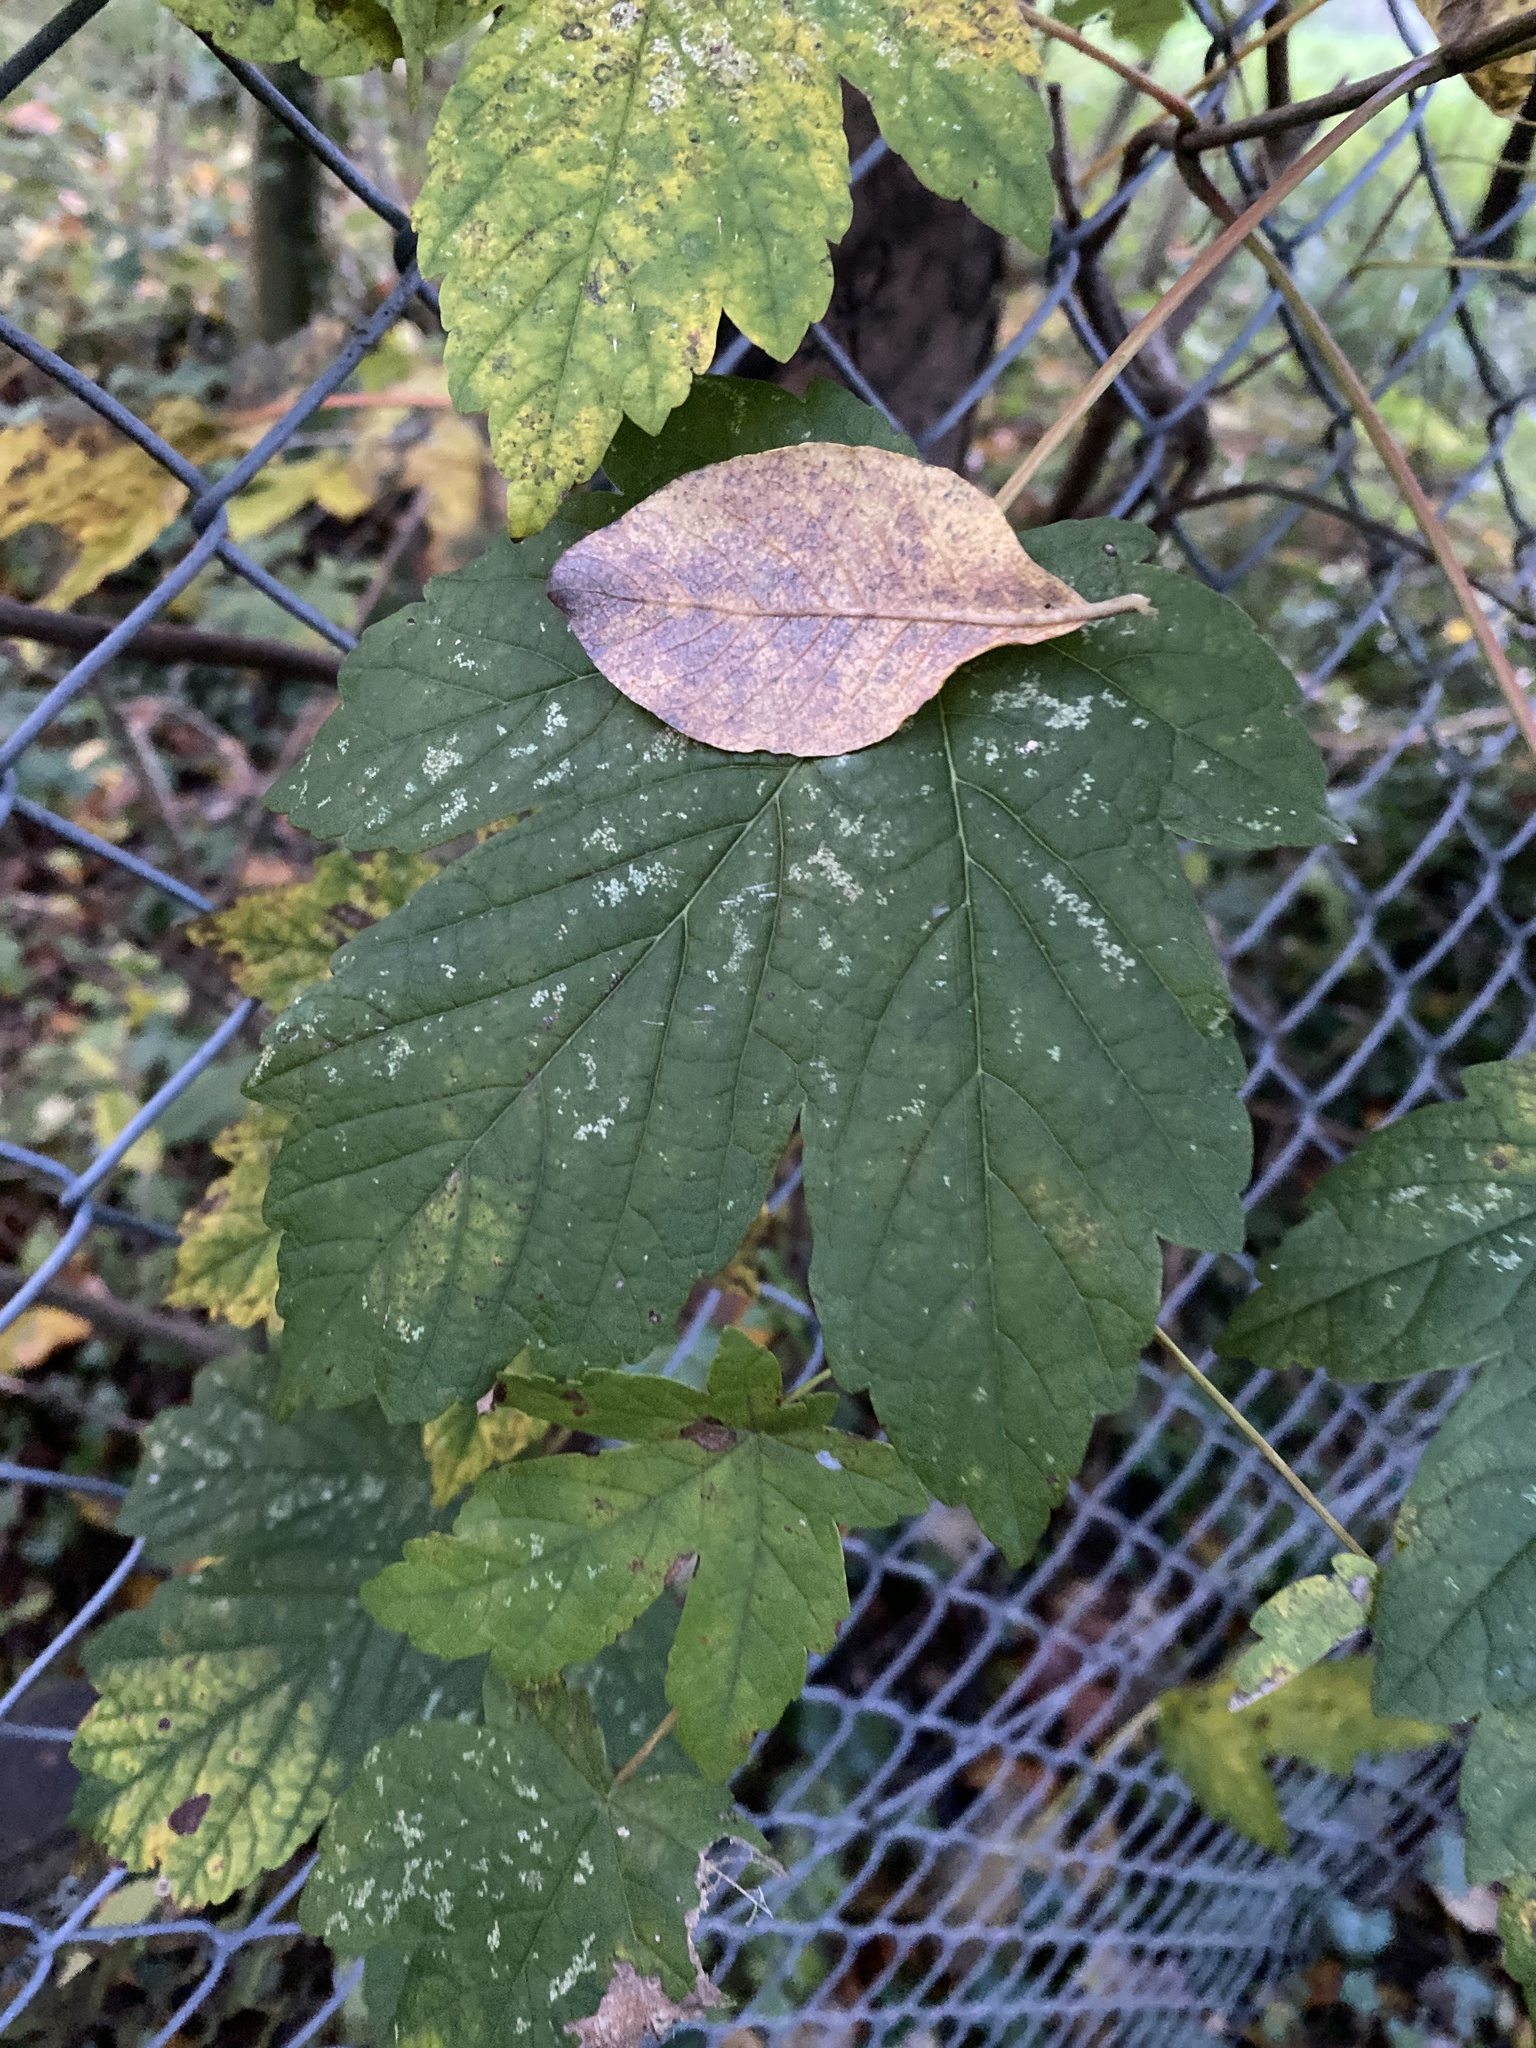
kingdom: Plantae
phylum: Tracheophyta
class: Magnoliopsida
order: Sapindales
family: Sapindaceae
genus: Acer
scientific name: Acer pseudoplatanus
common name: Sycamore
